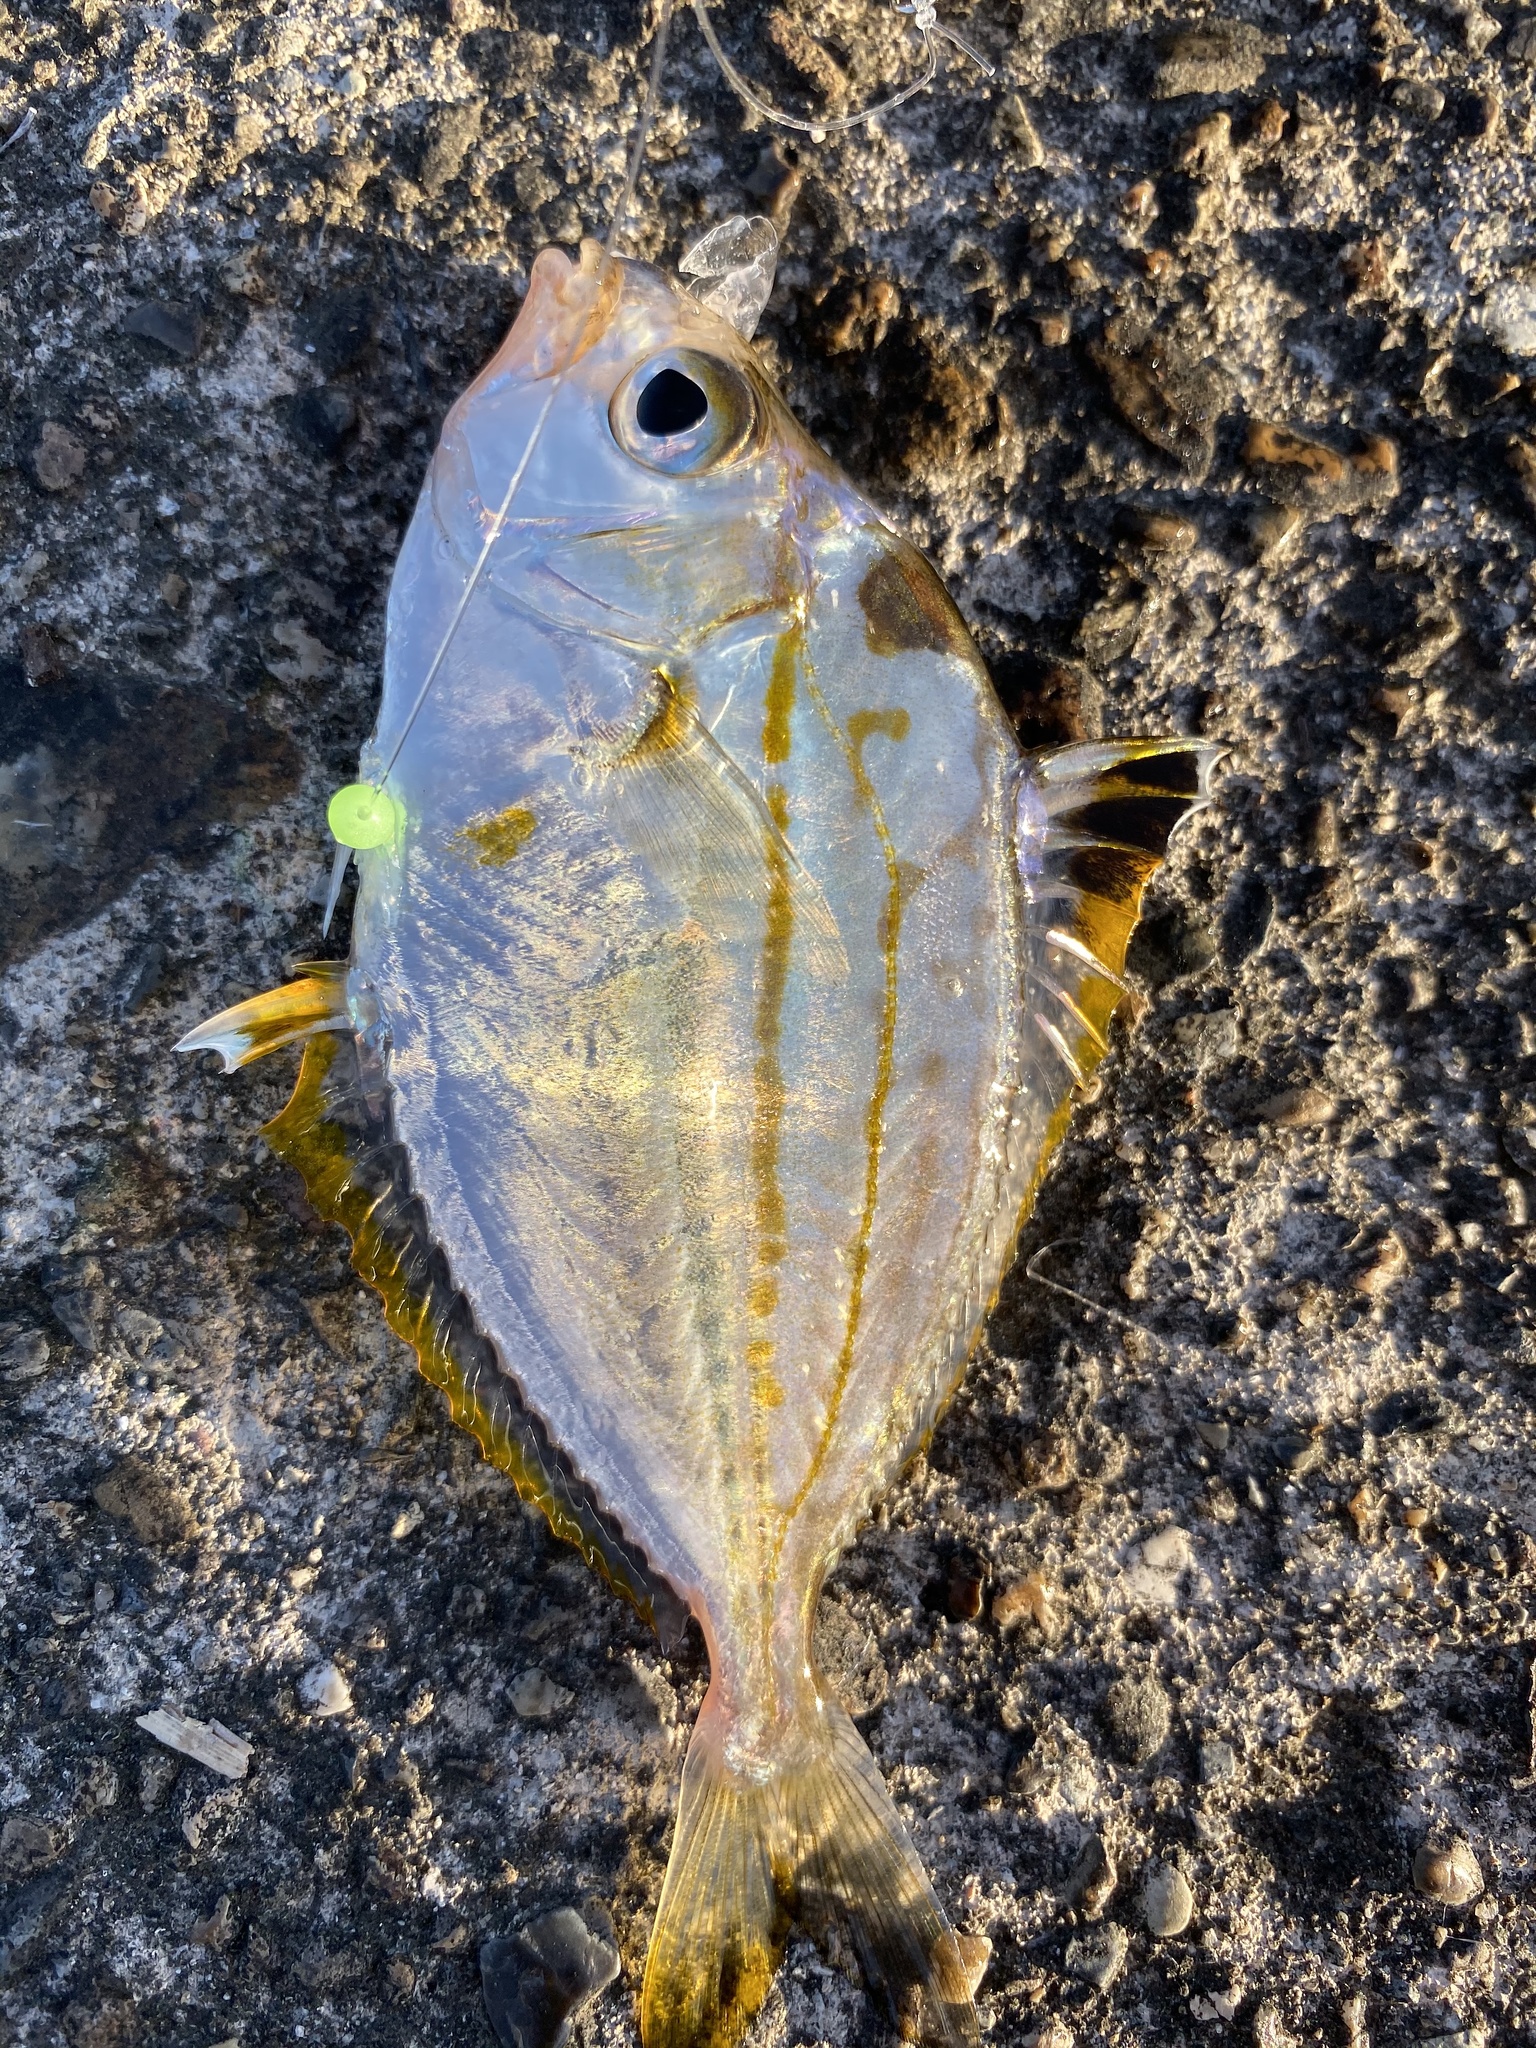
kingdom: Animalia
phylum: Chordata
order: Perciformes
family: Leiognathidae
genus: Nuchequula
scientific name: Nuchequula nuchalis
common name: Spotnape ponyfish
